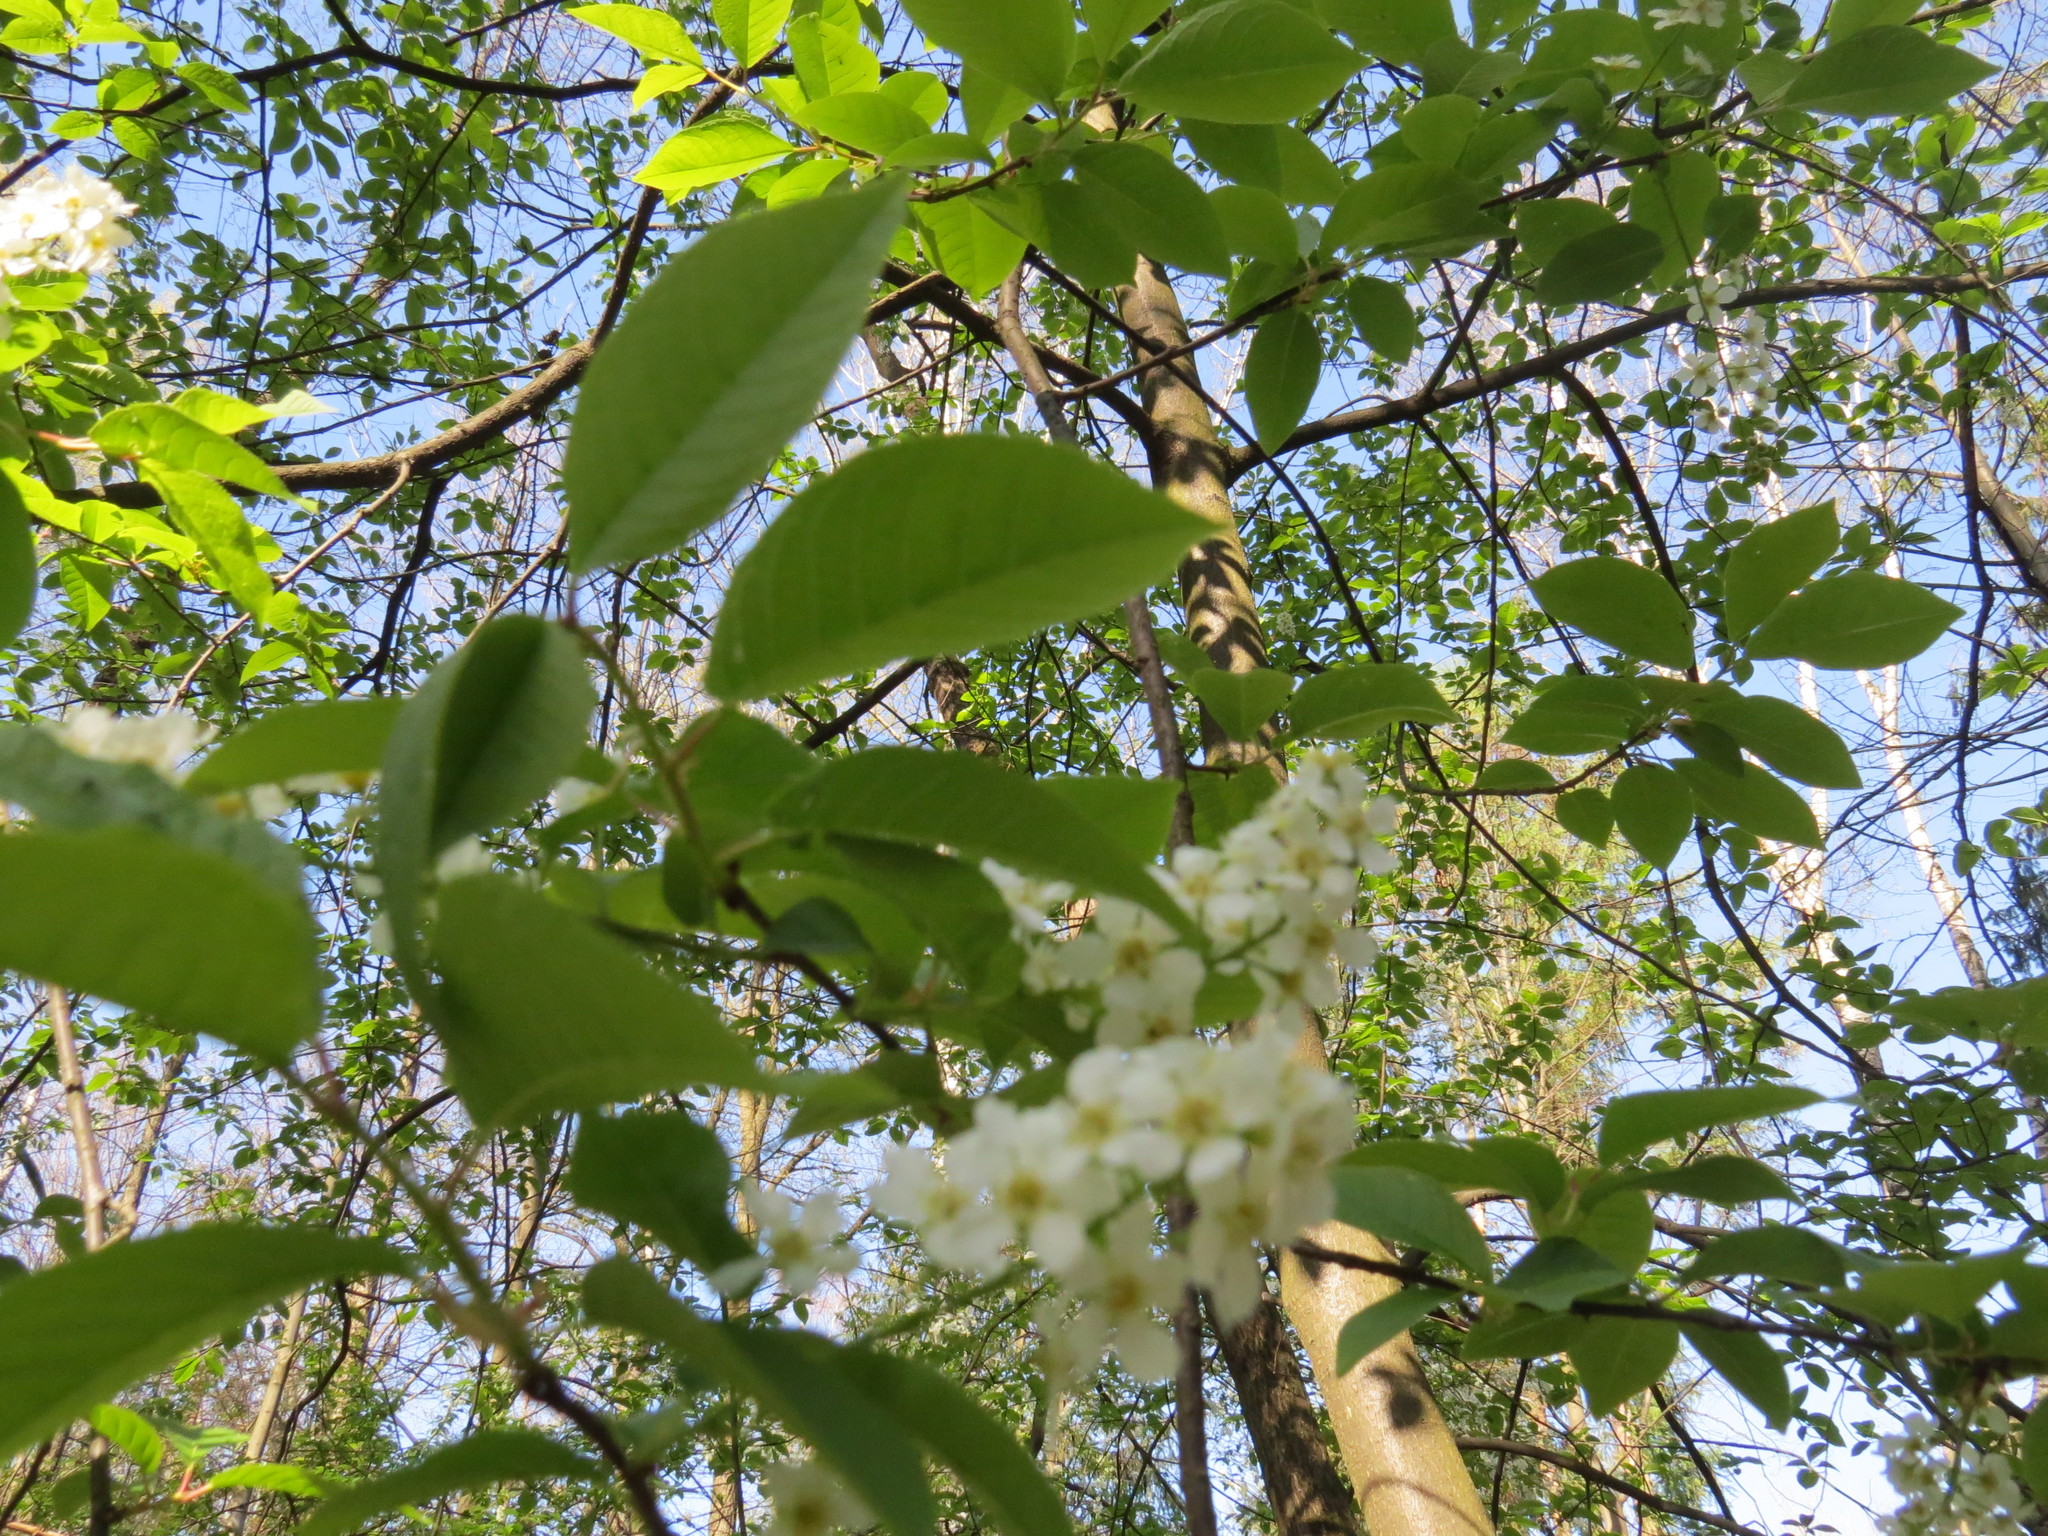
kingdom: Plantae
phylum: Tracheophyta
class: Magnoliopsida
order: Rosales
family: Rosaceae
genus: Prunus
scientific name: Prunus padus
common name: Bird cherry
